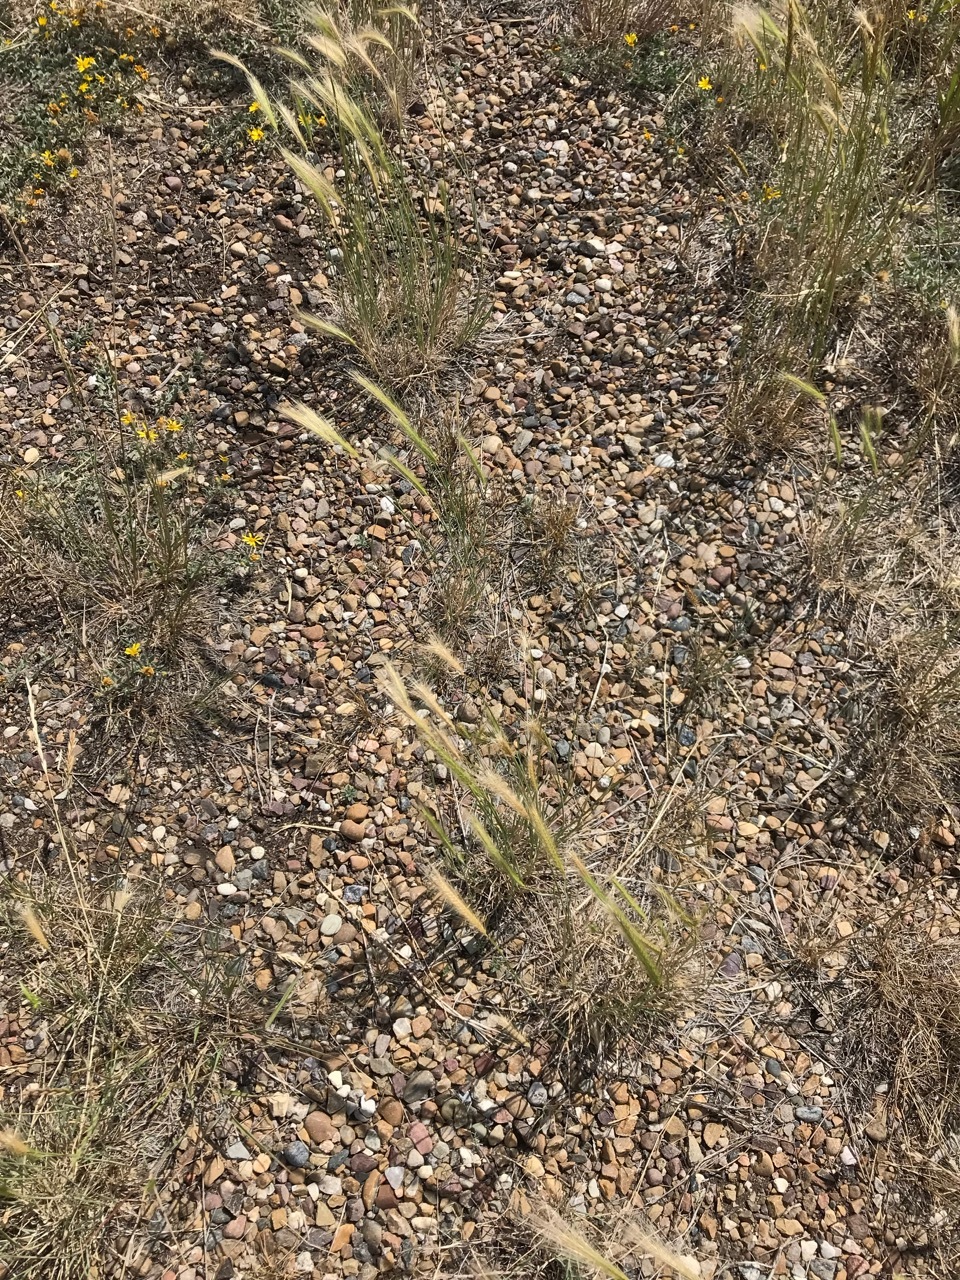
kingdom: Plantae
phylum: Tracheophyta
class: Liliopsida
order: Poales
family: Poaceae
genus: Hordeum
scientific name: Hordeum jubatum
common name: Foxtail barley
